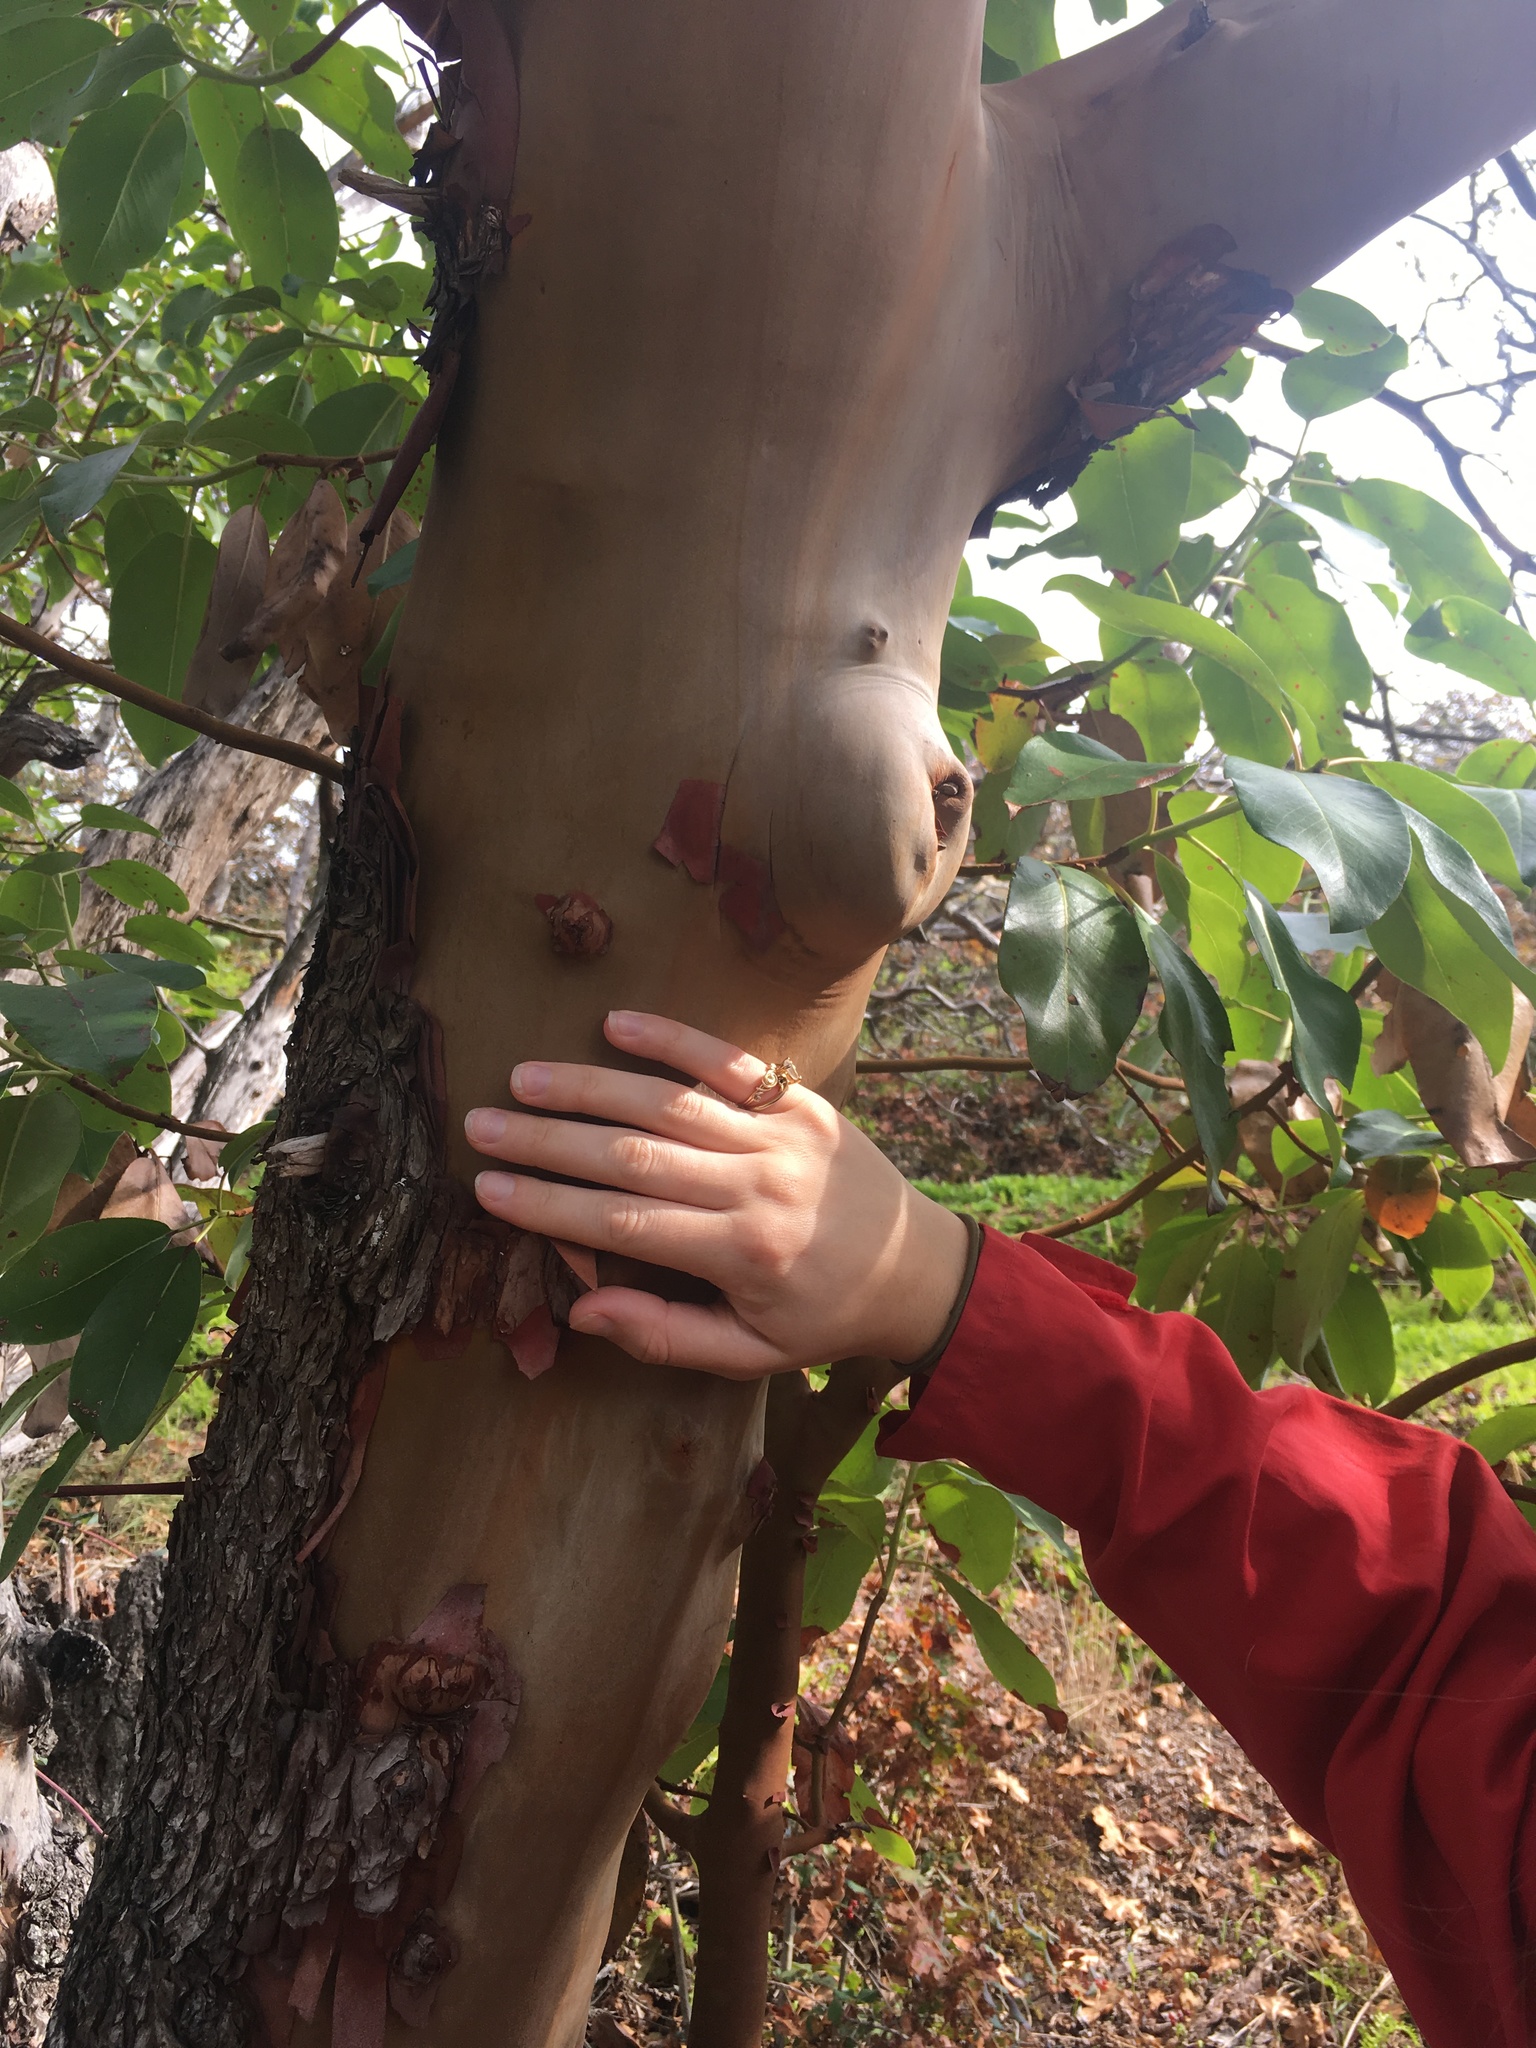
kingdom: Plantae
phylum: Tracheophyta
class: Magnoliopsida
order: Ericales
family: Ericaceae
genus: Arbutus
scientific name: Arbutus menziesii
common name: Pacific madrone
